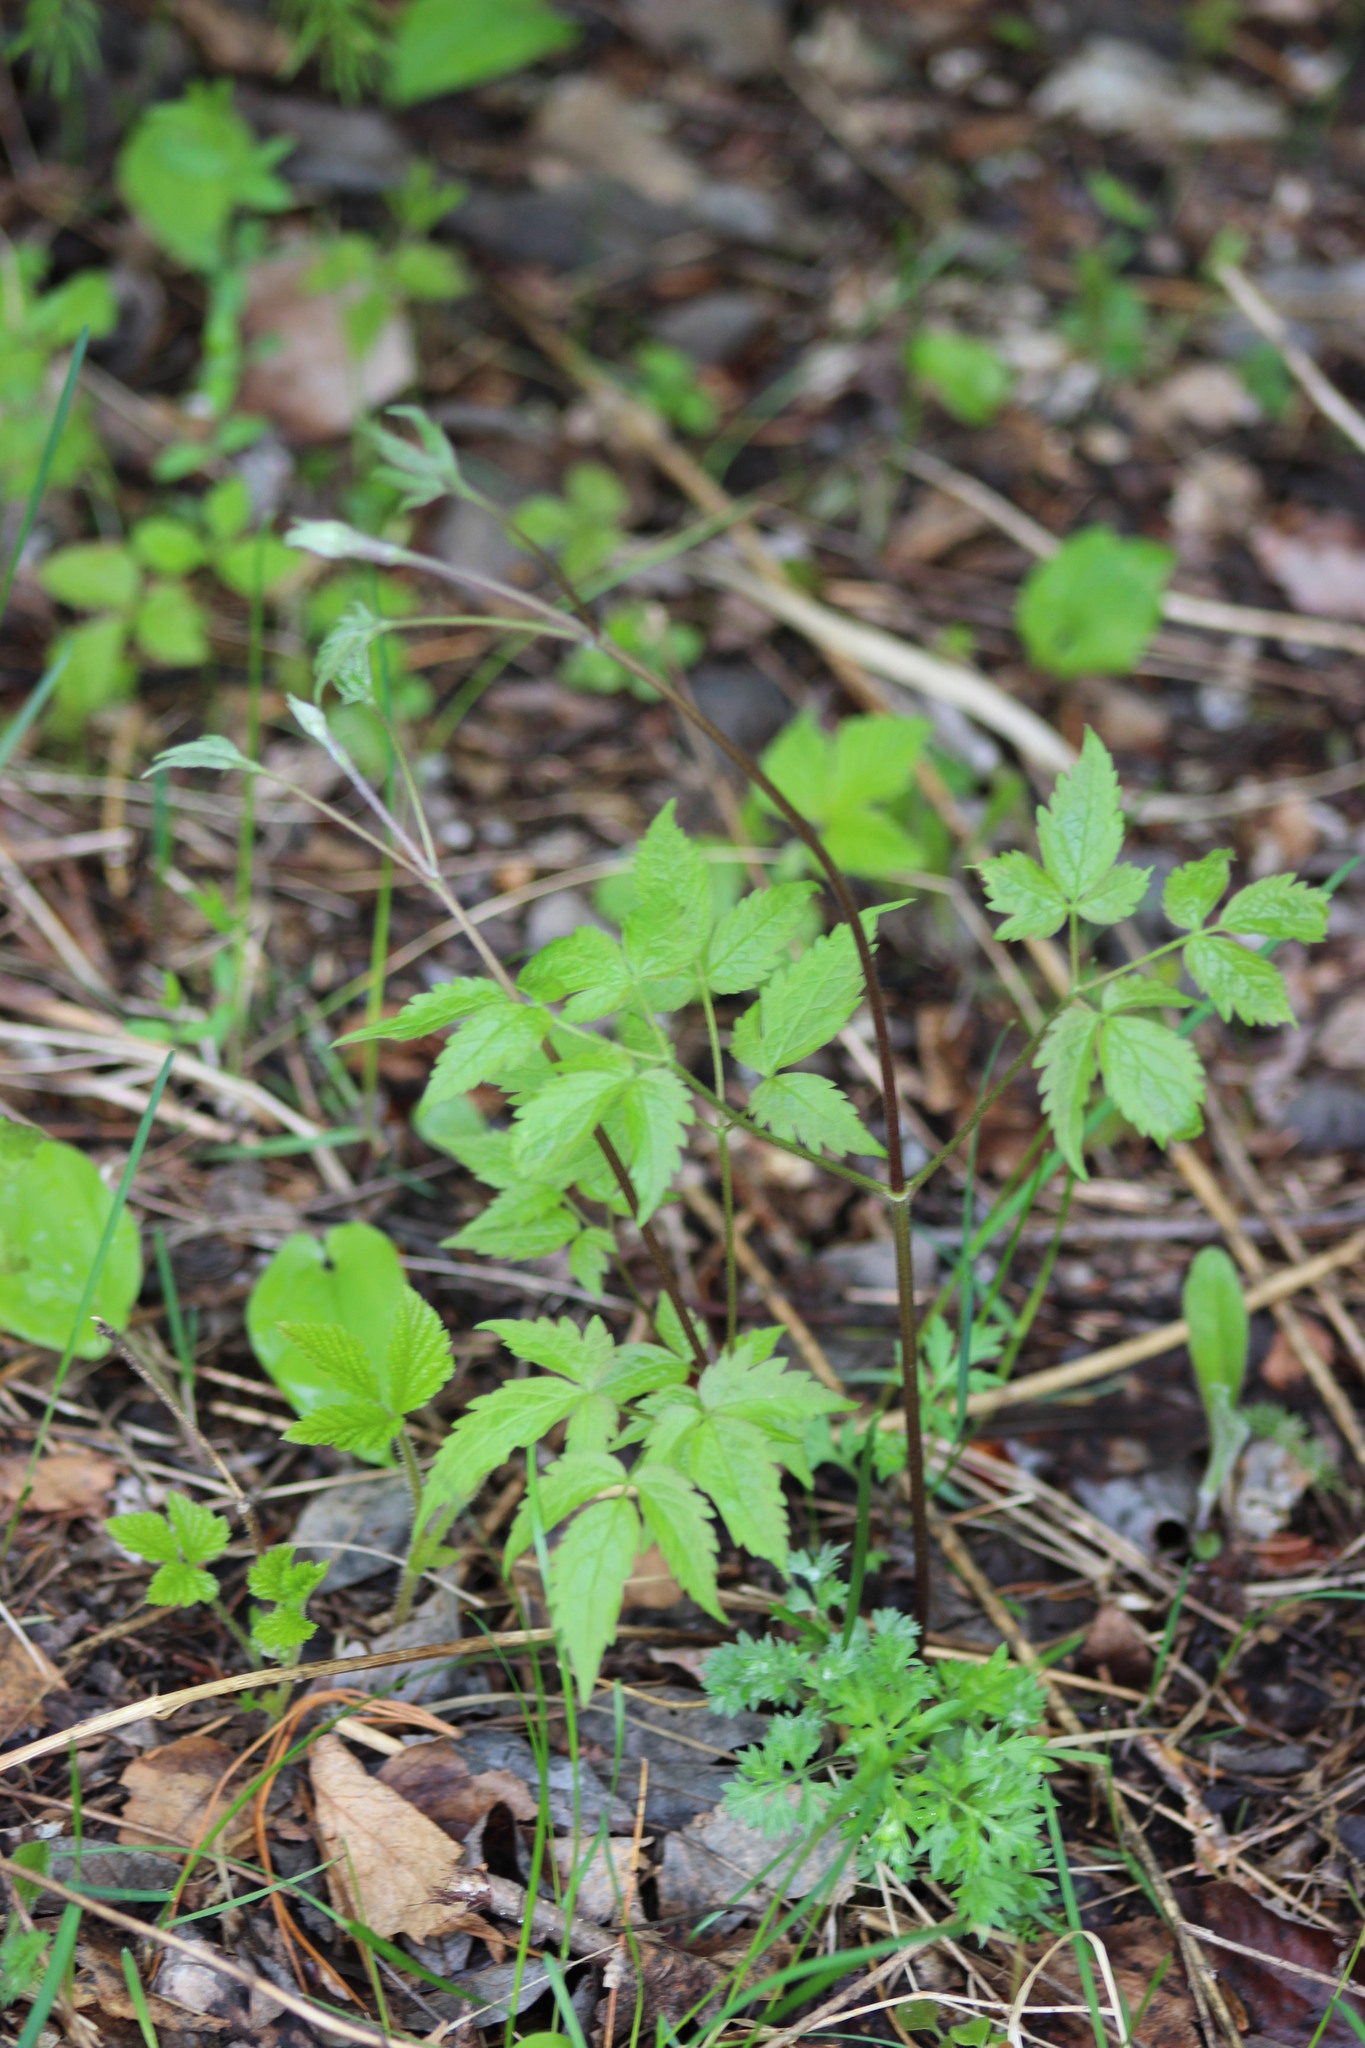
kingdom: Plantae
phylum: Tracheophyta
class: Magnoliopsida
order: Ranunculales
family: Ranunculaceae
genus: Clematis
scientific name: Clematis sibirica
